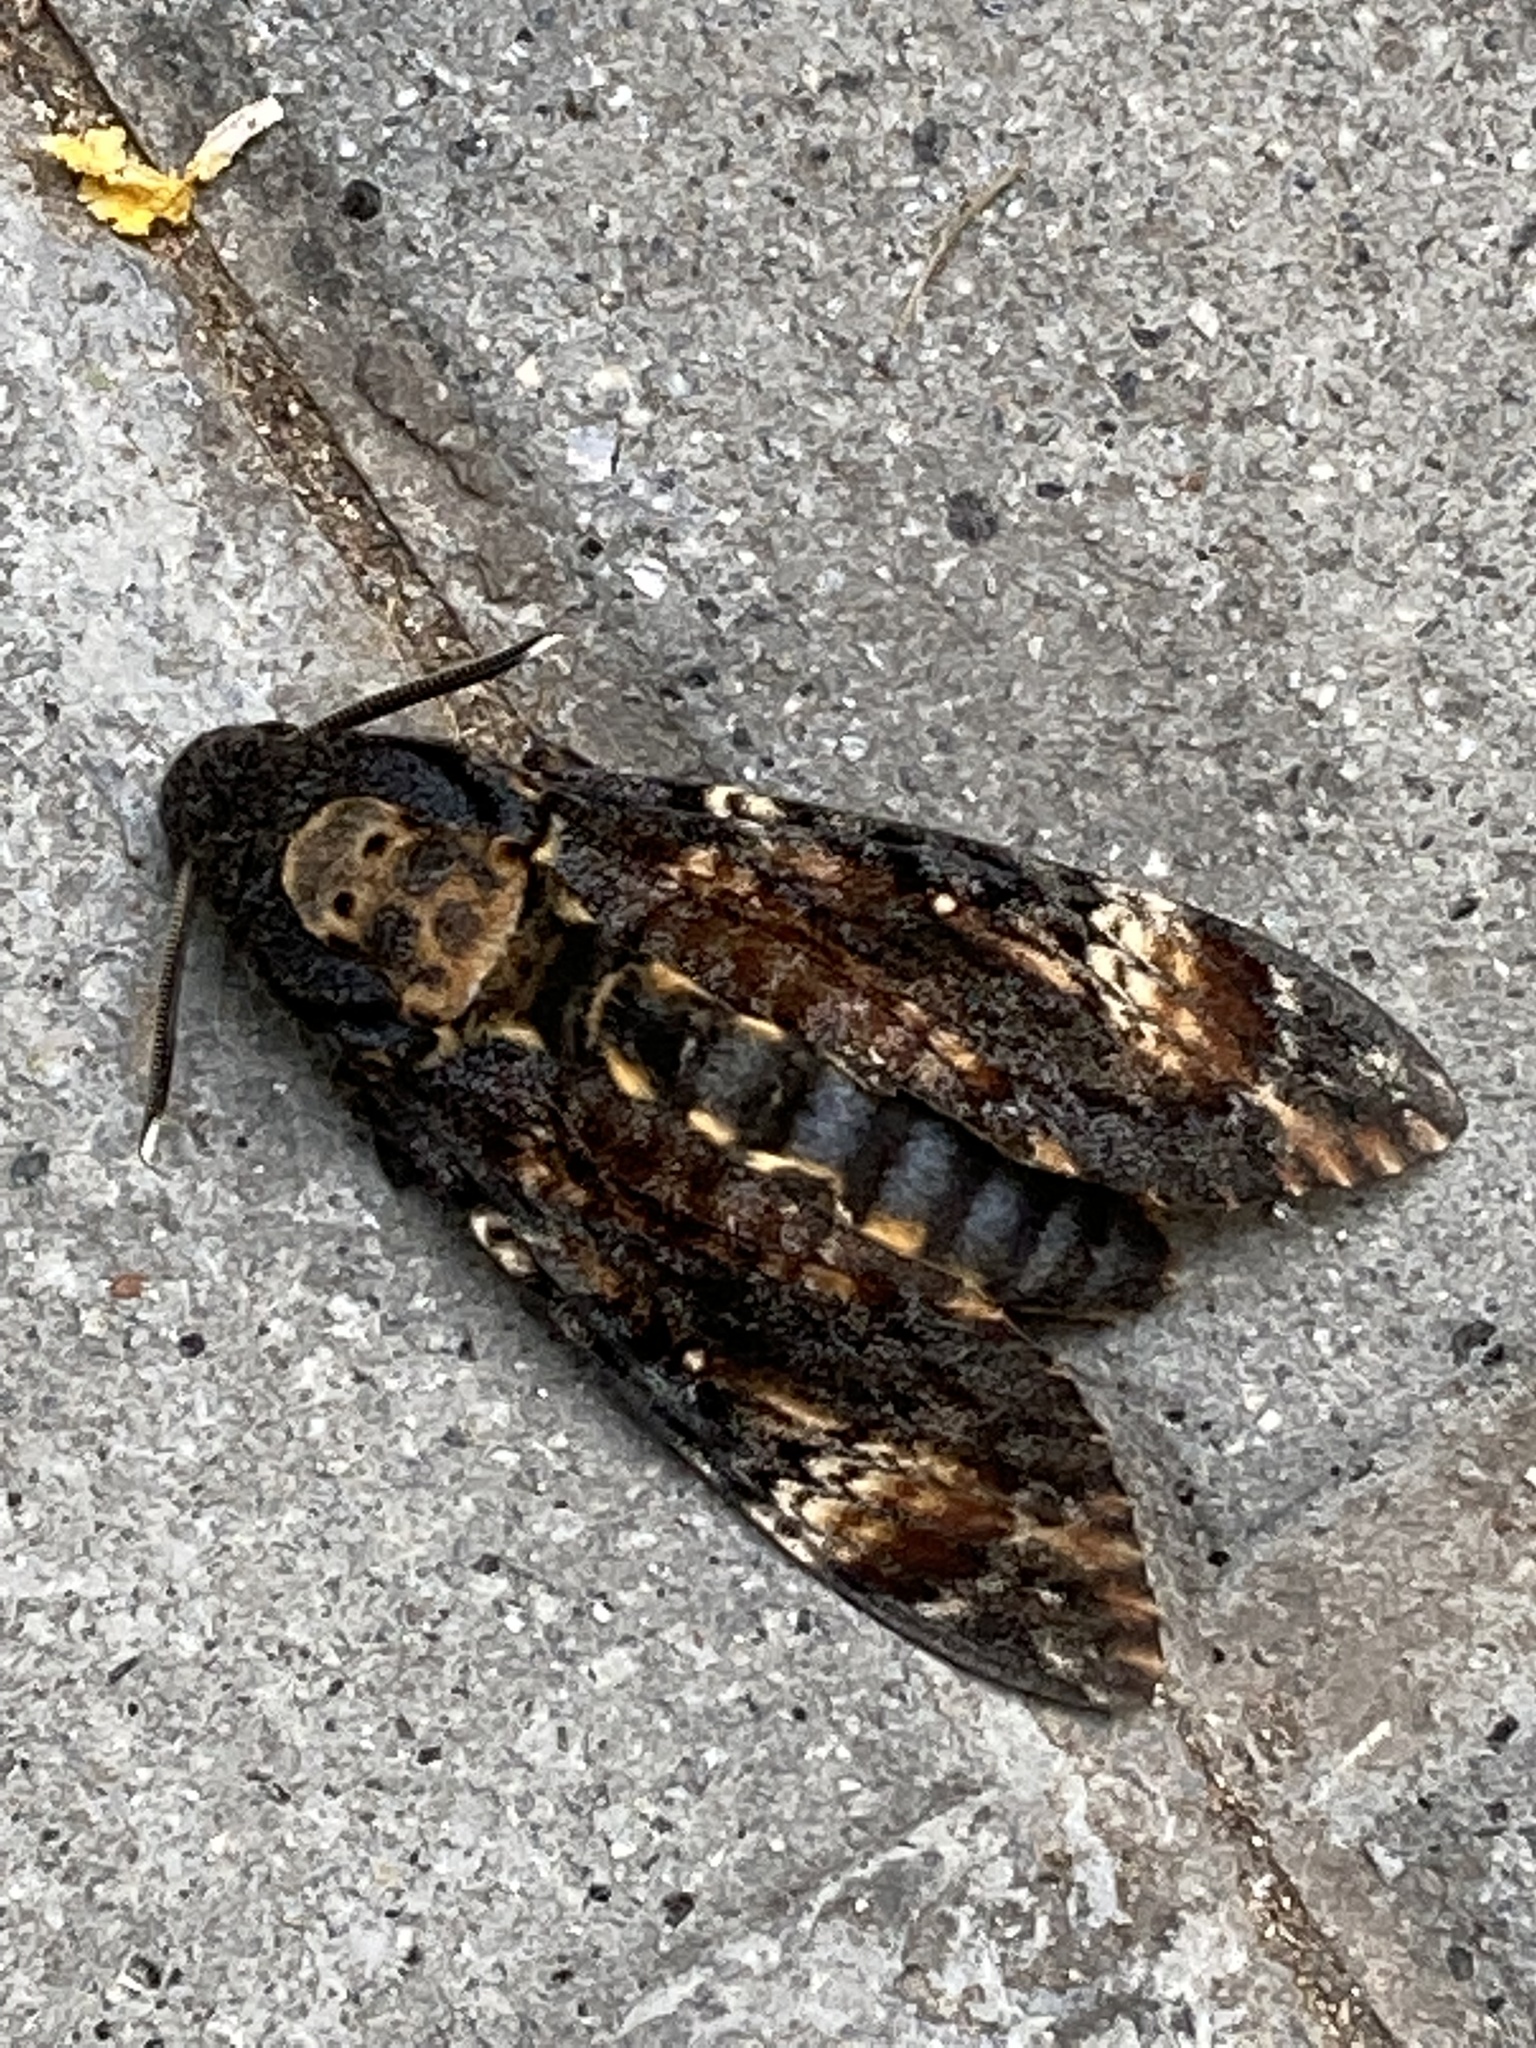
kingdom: Animalia
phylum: Arthropoda
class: Insecta
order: Lepidoptera
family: Sphingidae
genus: Acherontia
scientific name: Acherontia atropos
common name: Death's-head hawk moth
